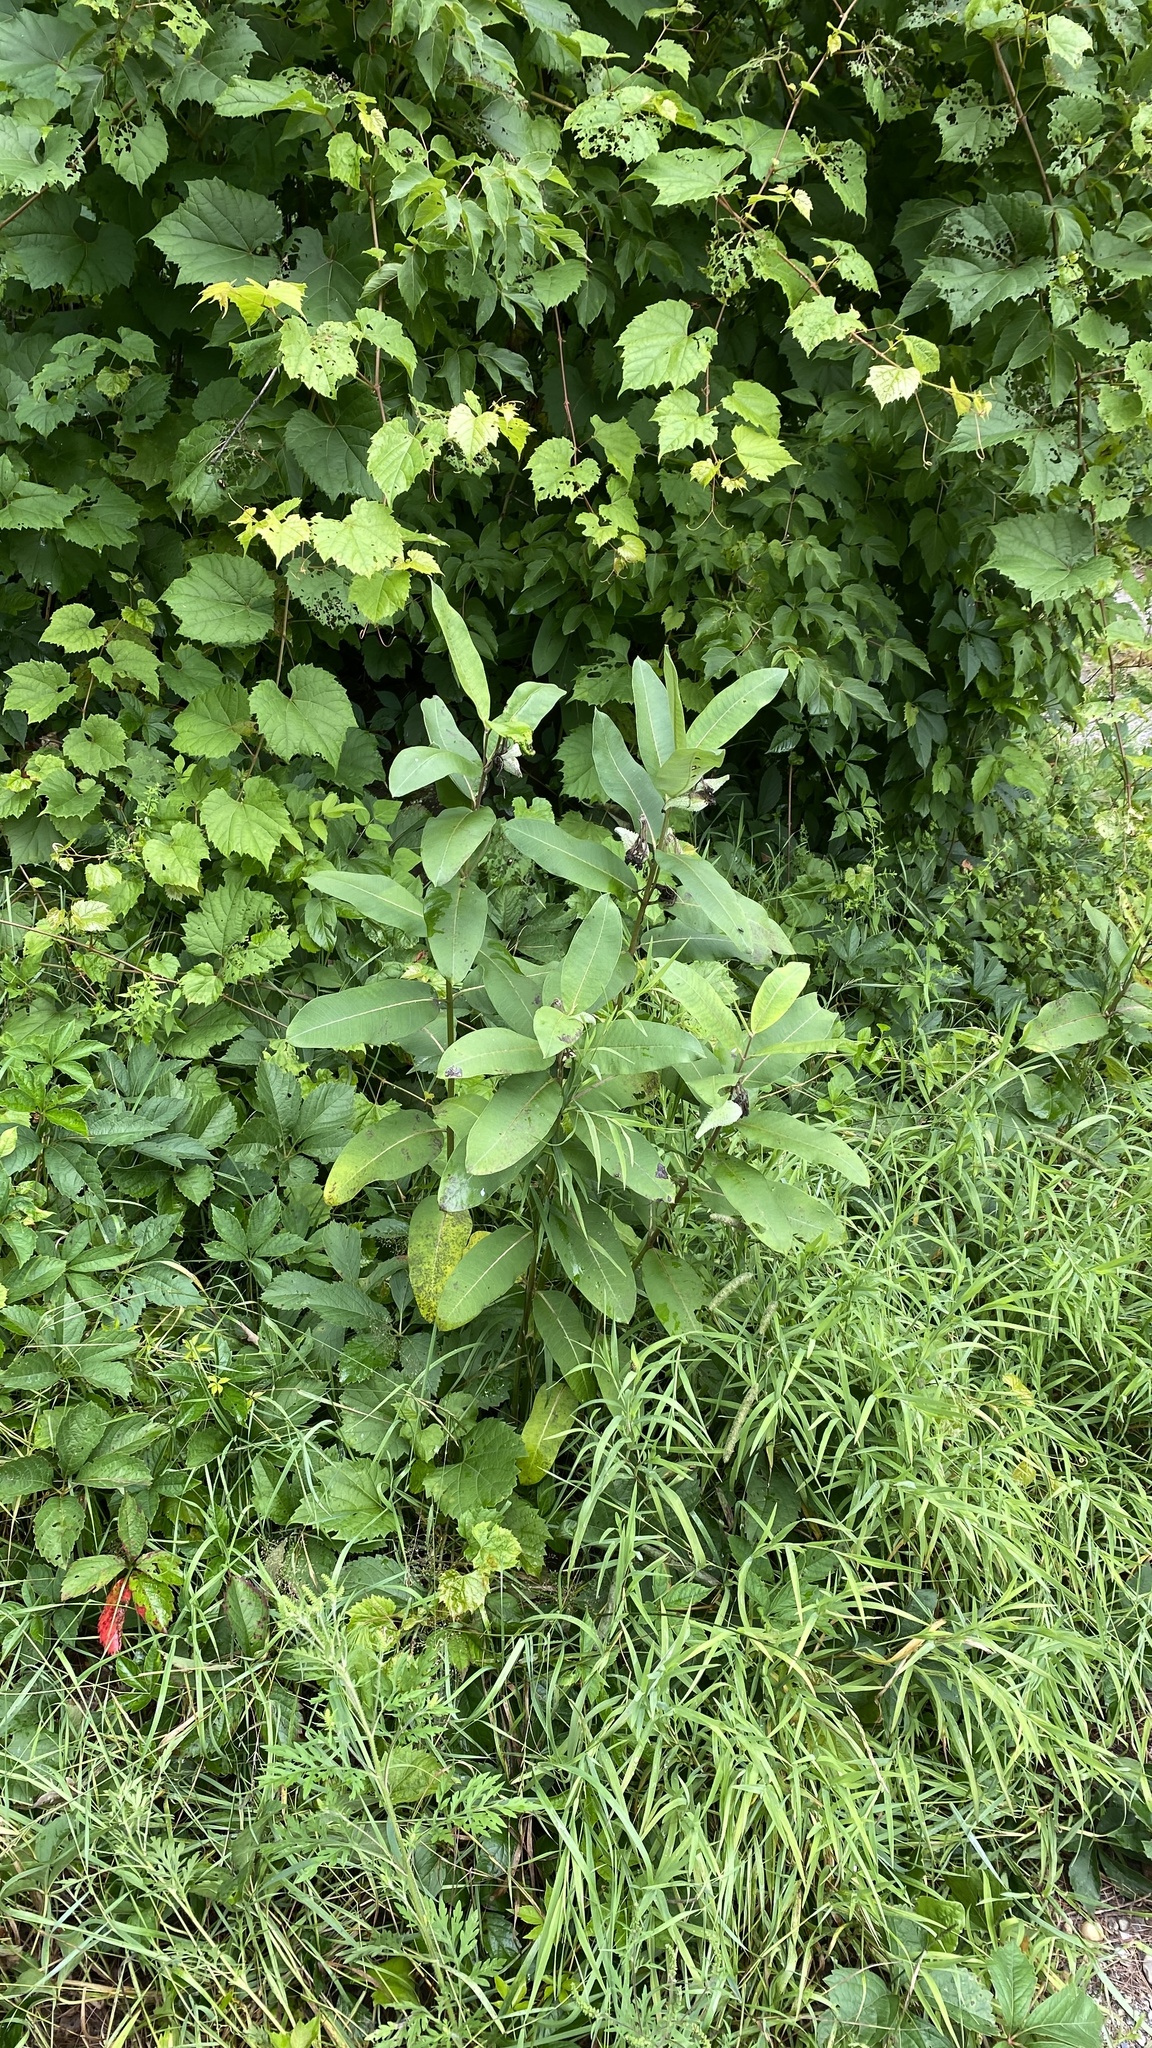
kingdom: Plantae
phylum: Tracheophyta
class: Magnoliopsida
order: Gentianales
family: Apocynaceae
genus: Asclepias
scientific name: Asclepias syriaca
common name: Common milkweed
